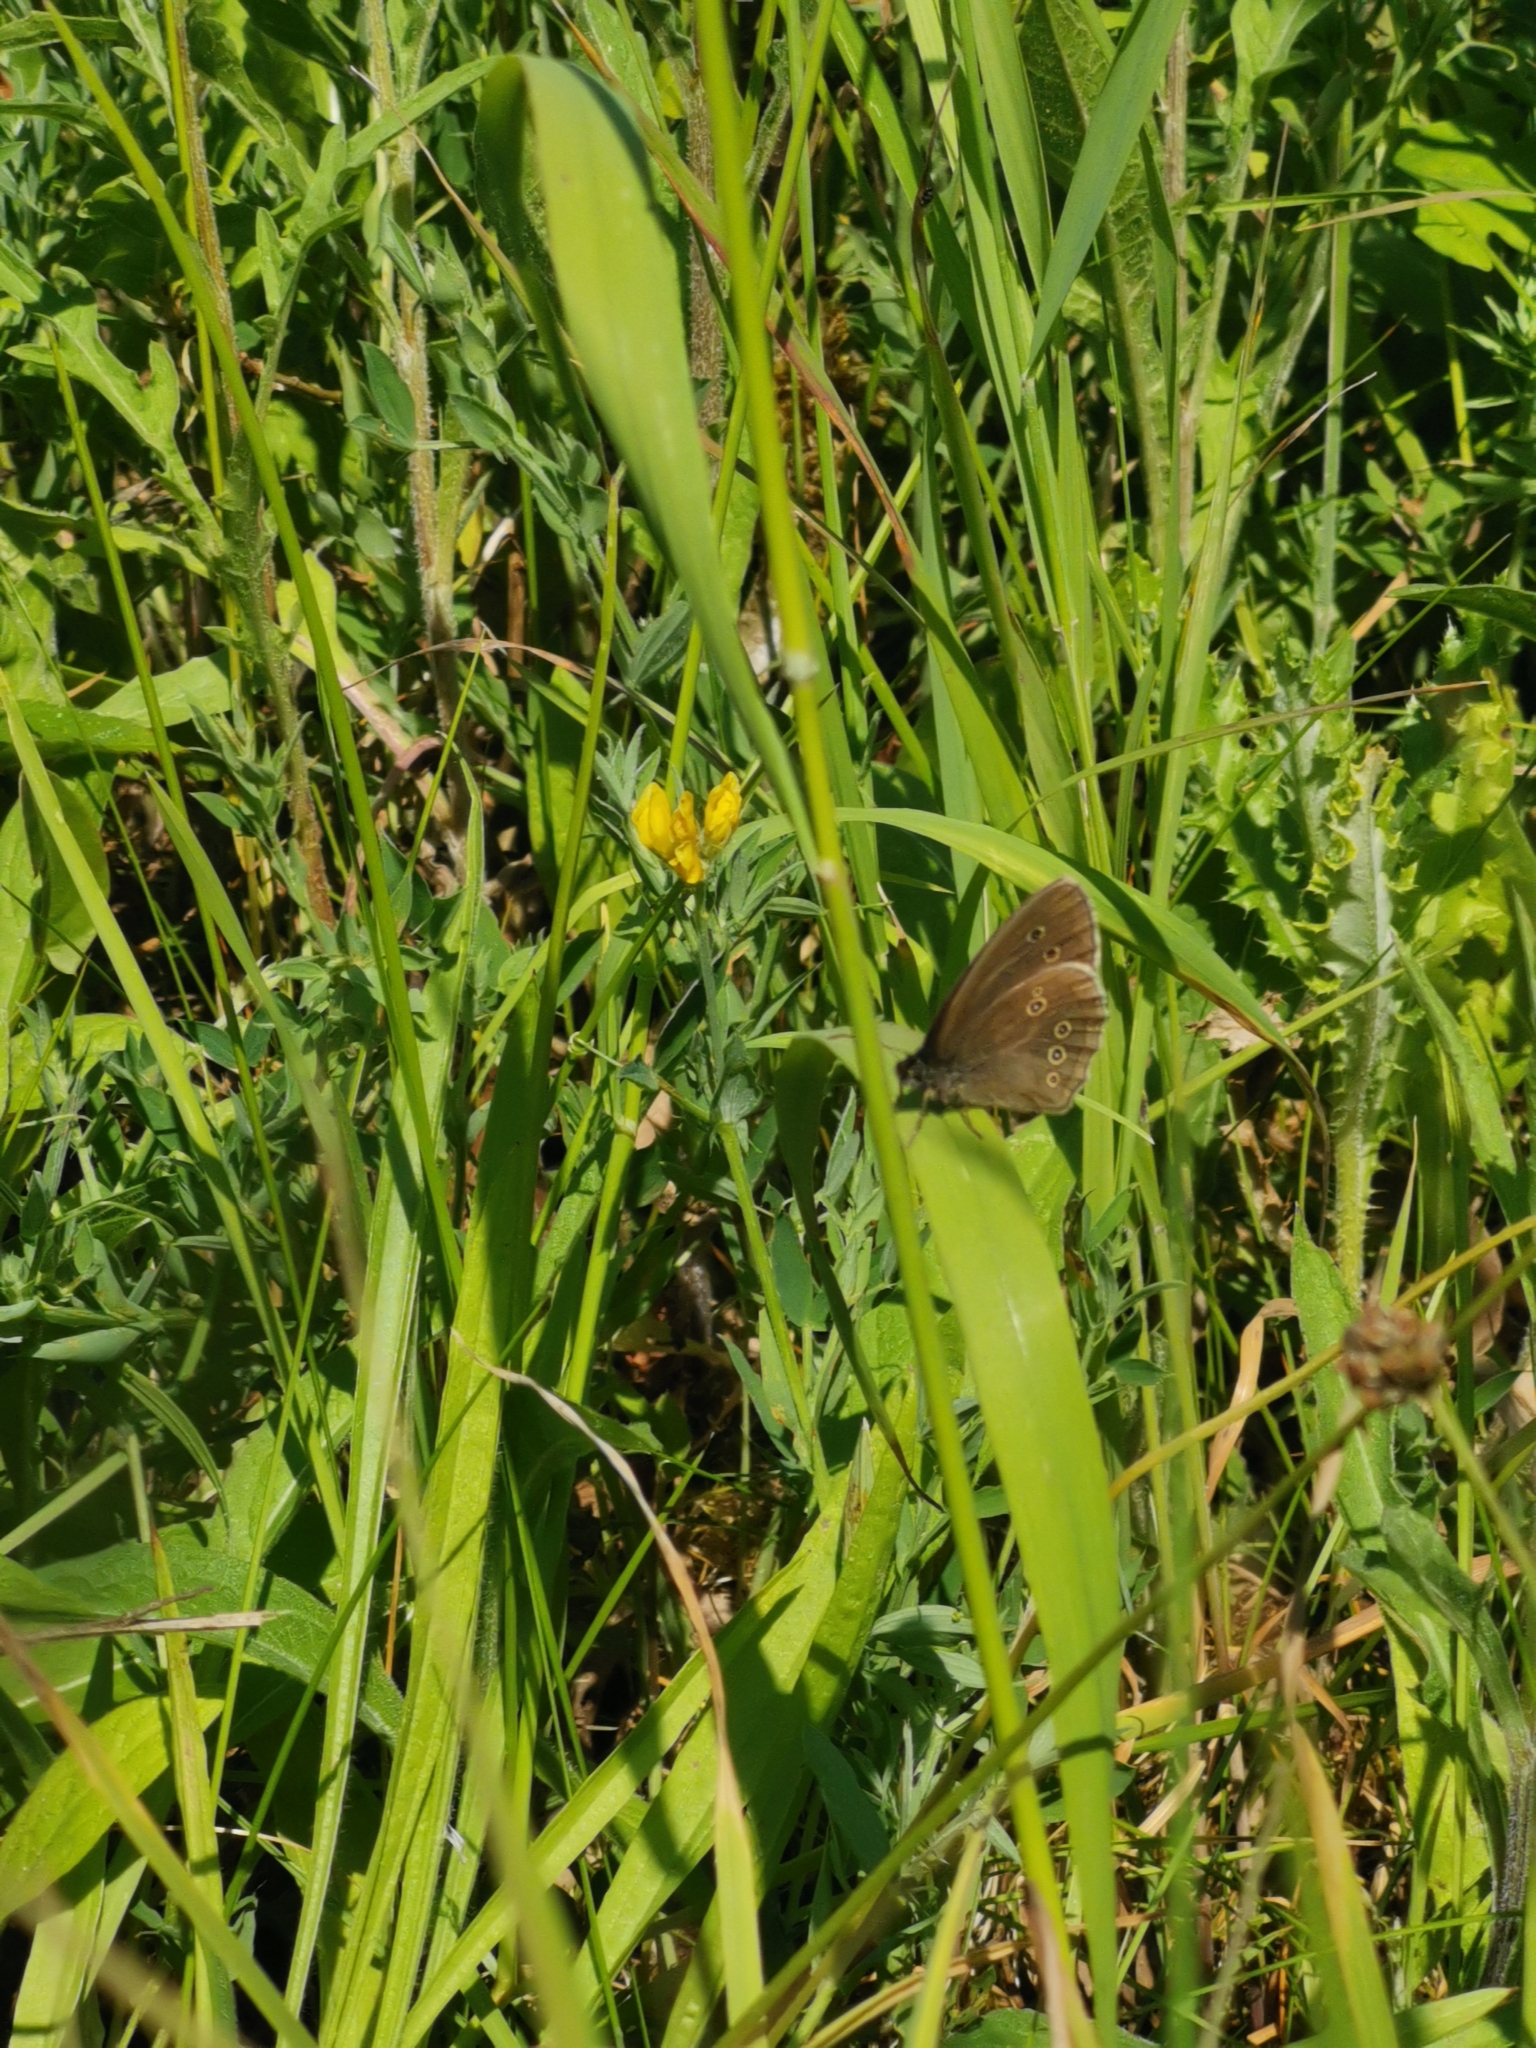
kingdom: Animalia
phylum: Arthropoda
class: Insecta
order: Lepidoptera
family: Nymphalidae
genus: Aphantopus
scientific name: Aphantopus hyperantus
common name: Ringlet
